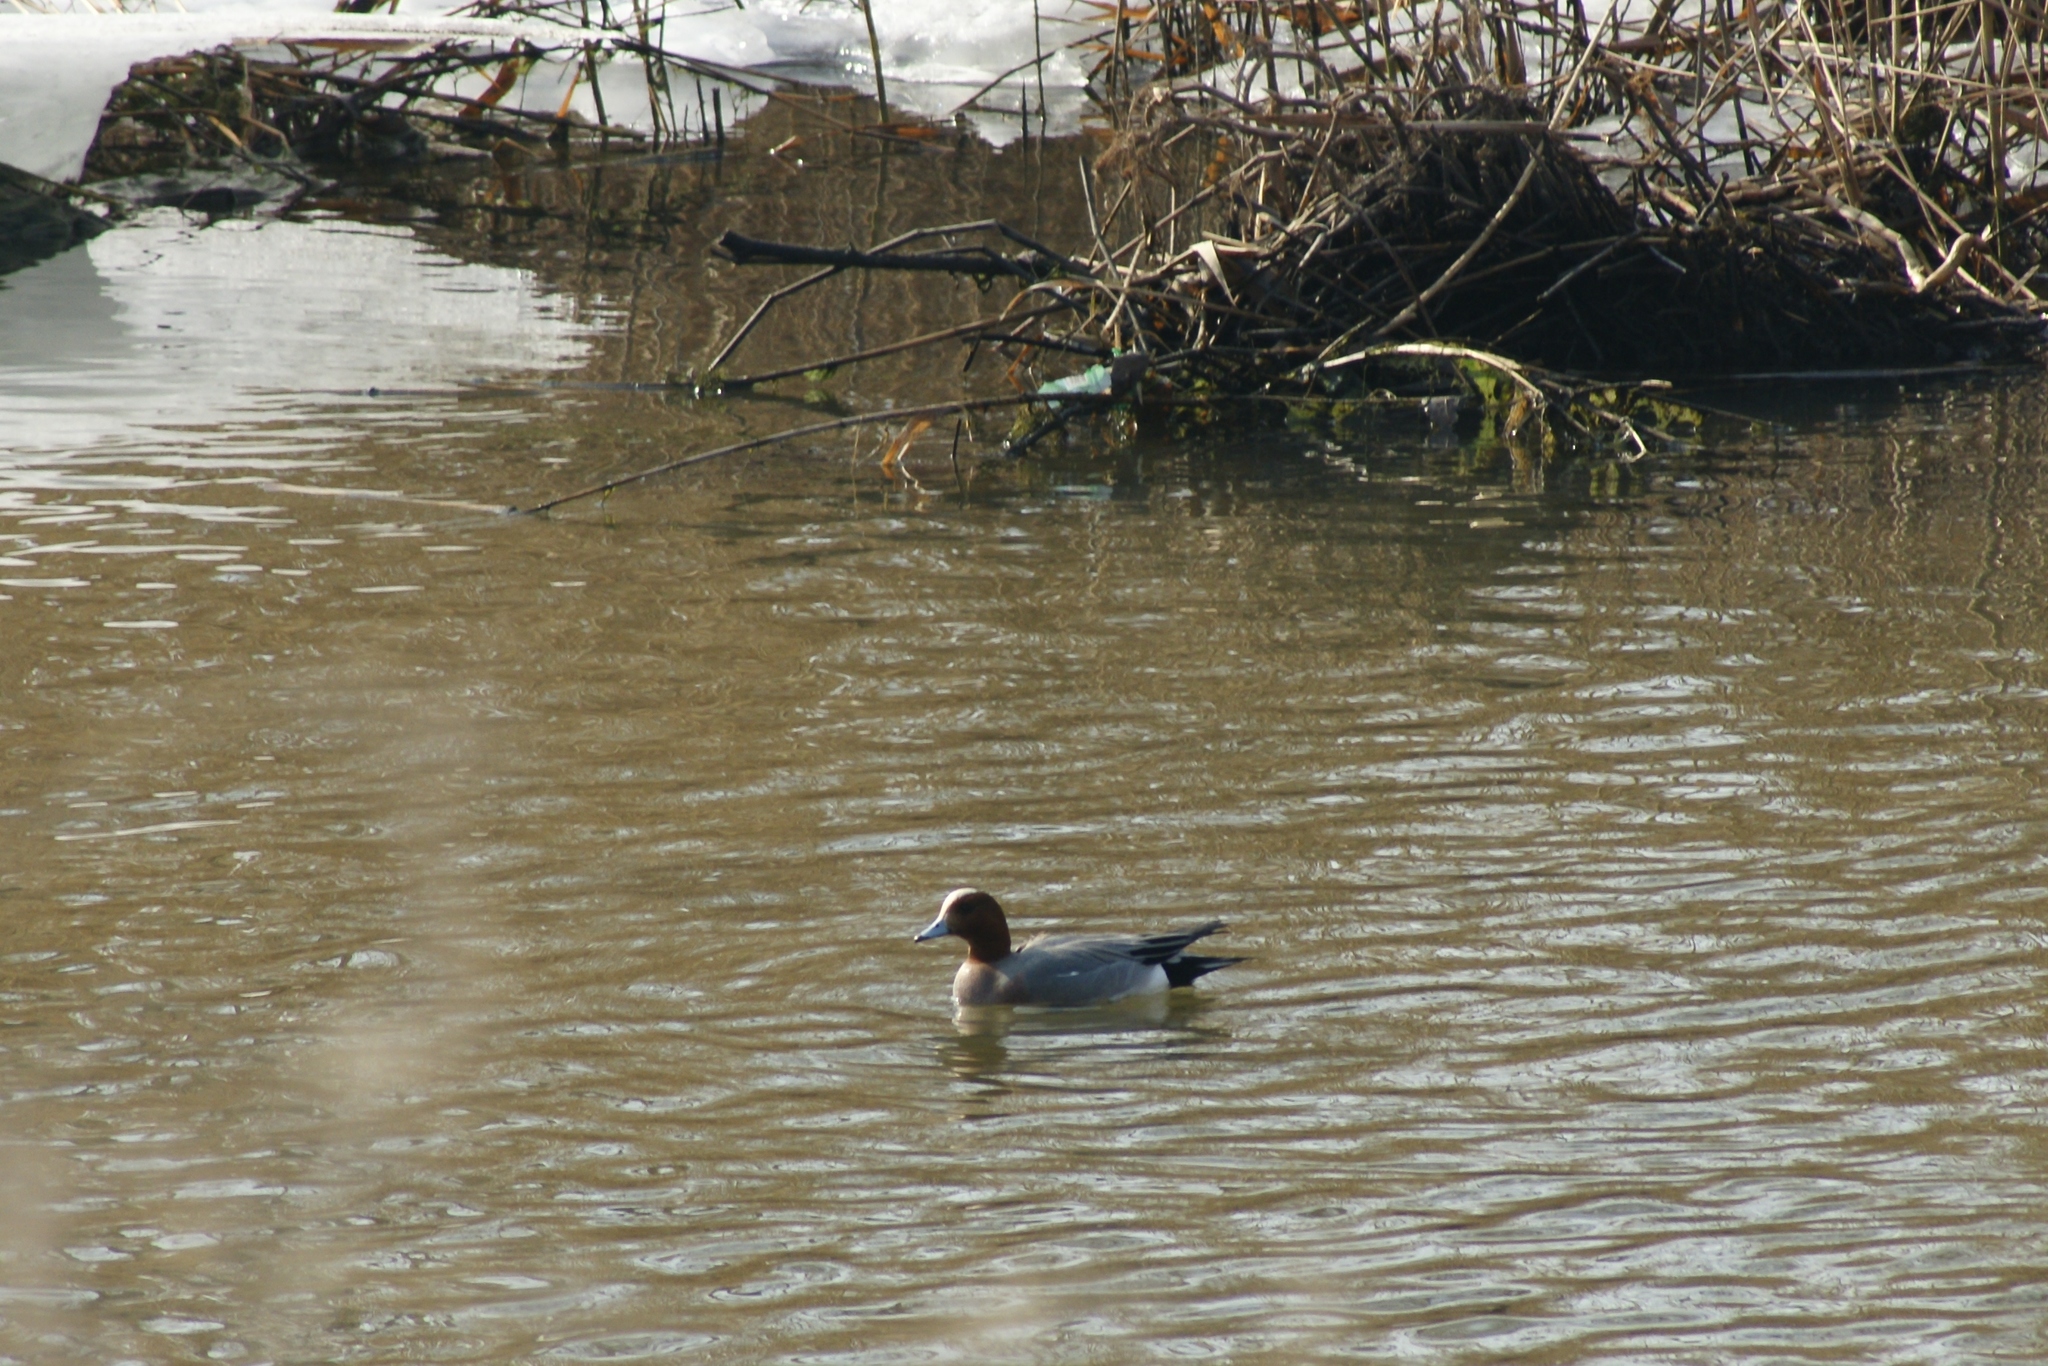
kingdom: Animalia
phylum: Chordata
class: Aves
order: Anseriformes
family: Anatidae
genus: Mareca
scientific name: Mareca penelope
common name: Eurasian wigeon
